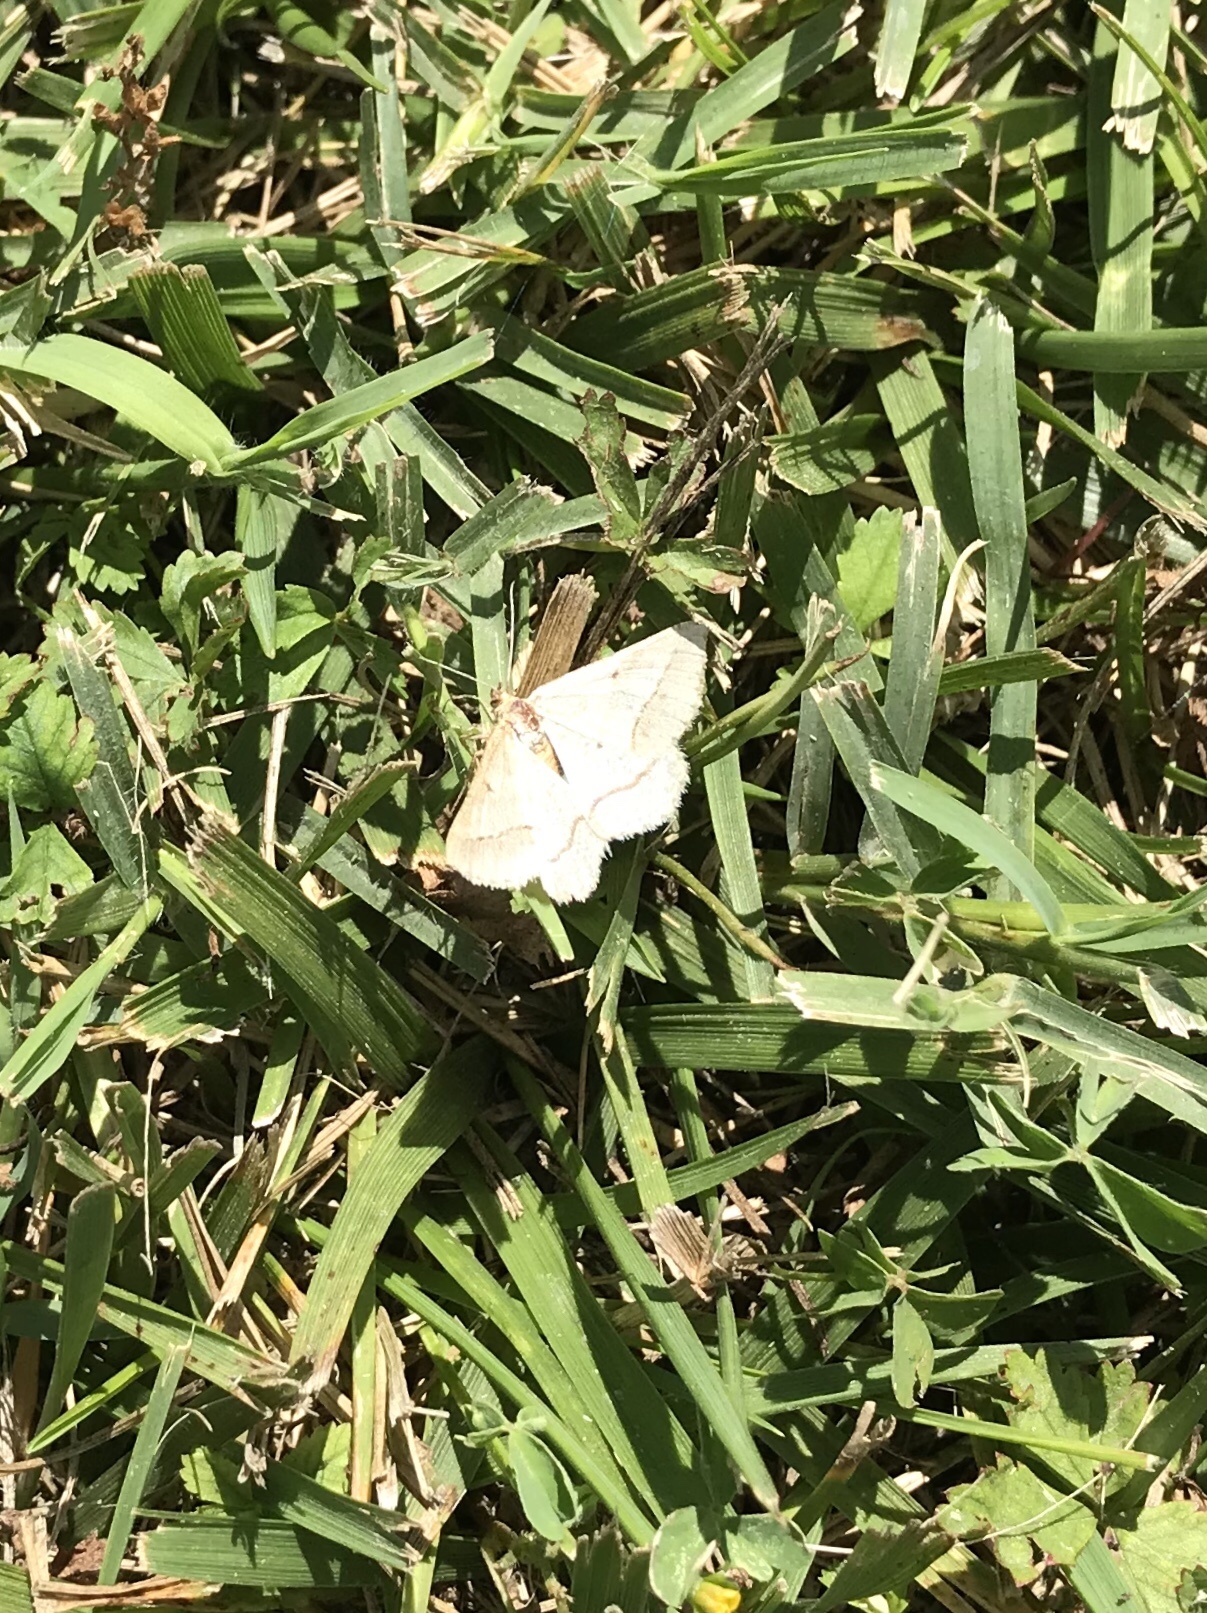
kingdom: Animalia
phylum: Arthropoda
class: Insecta
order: Lepidoptera
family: Geometridae
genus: Tephrina
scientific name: Tephrina arenacearia
